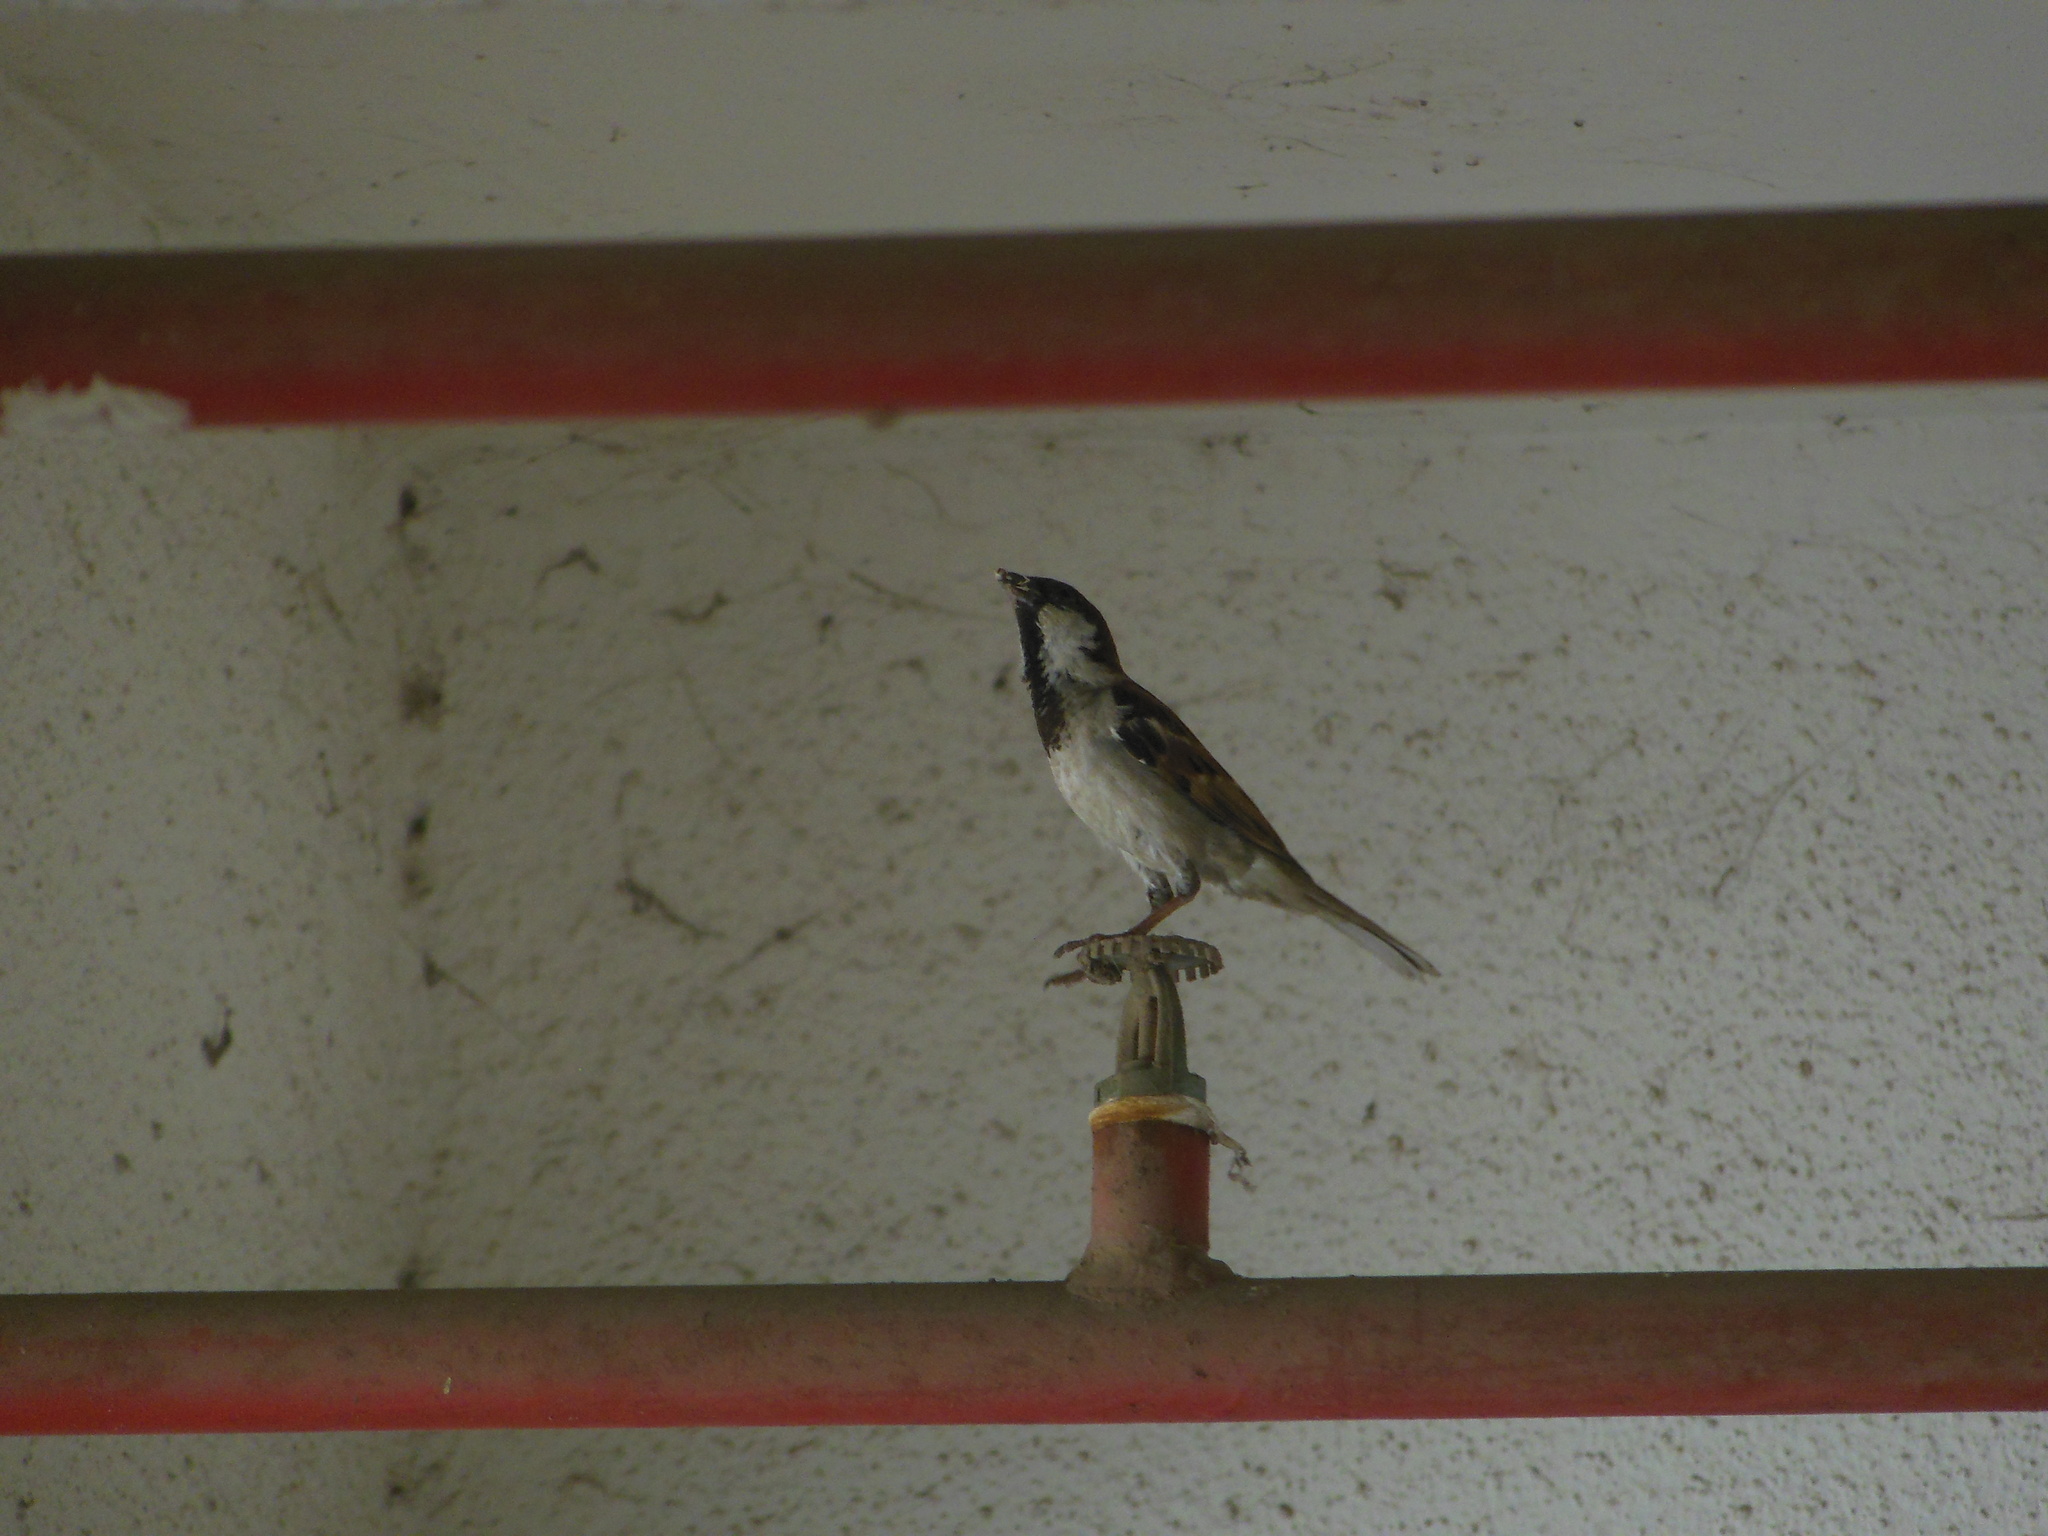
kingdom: Animalia
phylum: Chordata
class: Aves
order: Passeriformes
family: Passeridae
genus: Passer
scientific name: Passer domesticus
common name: House sparrow
